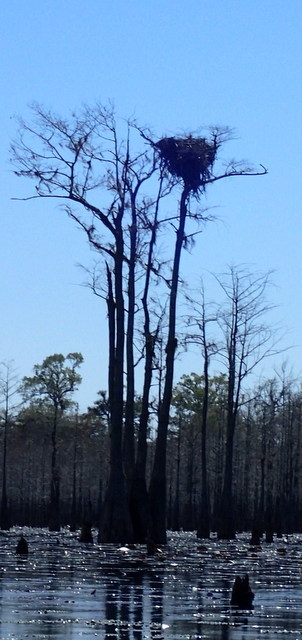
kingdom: Animalia
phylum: Chordata
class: Aves
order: Accipitriformes
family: Pandionidae
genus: Pandion
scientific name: Pandion haliaetus
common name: Osprey
